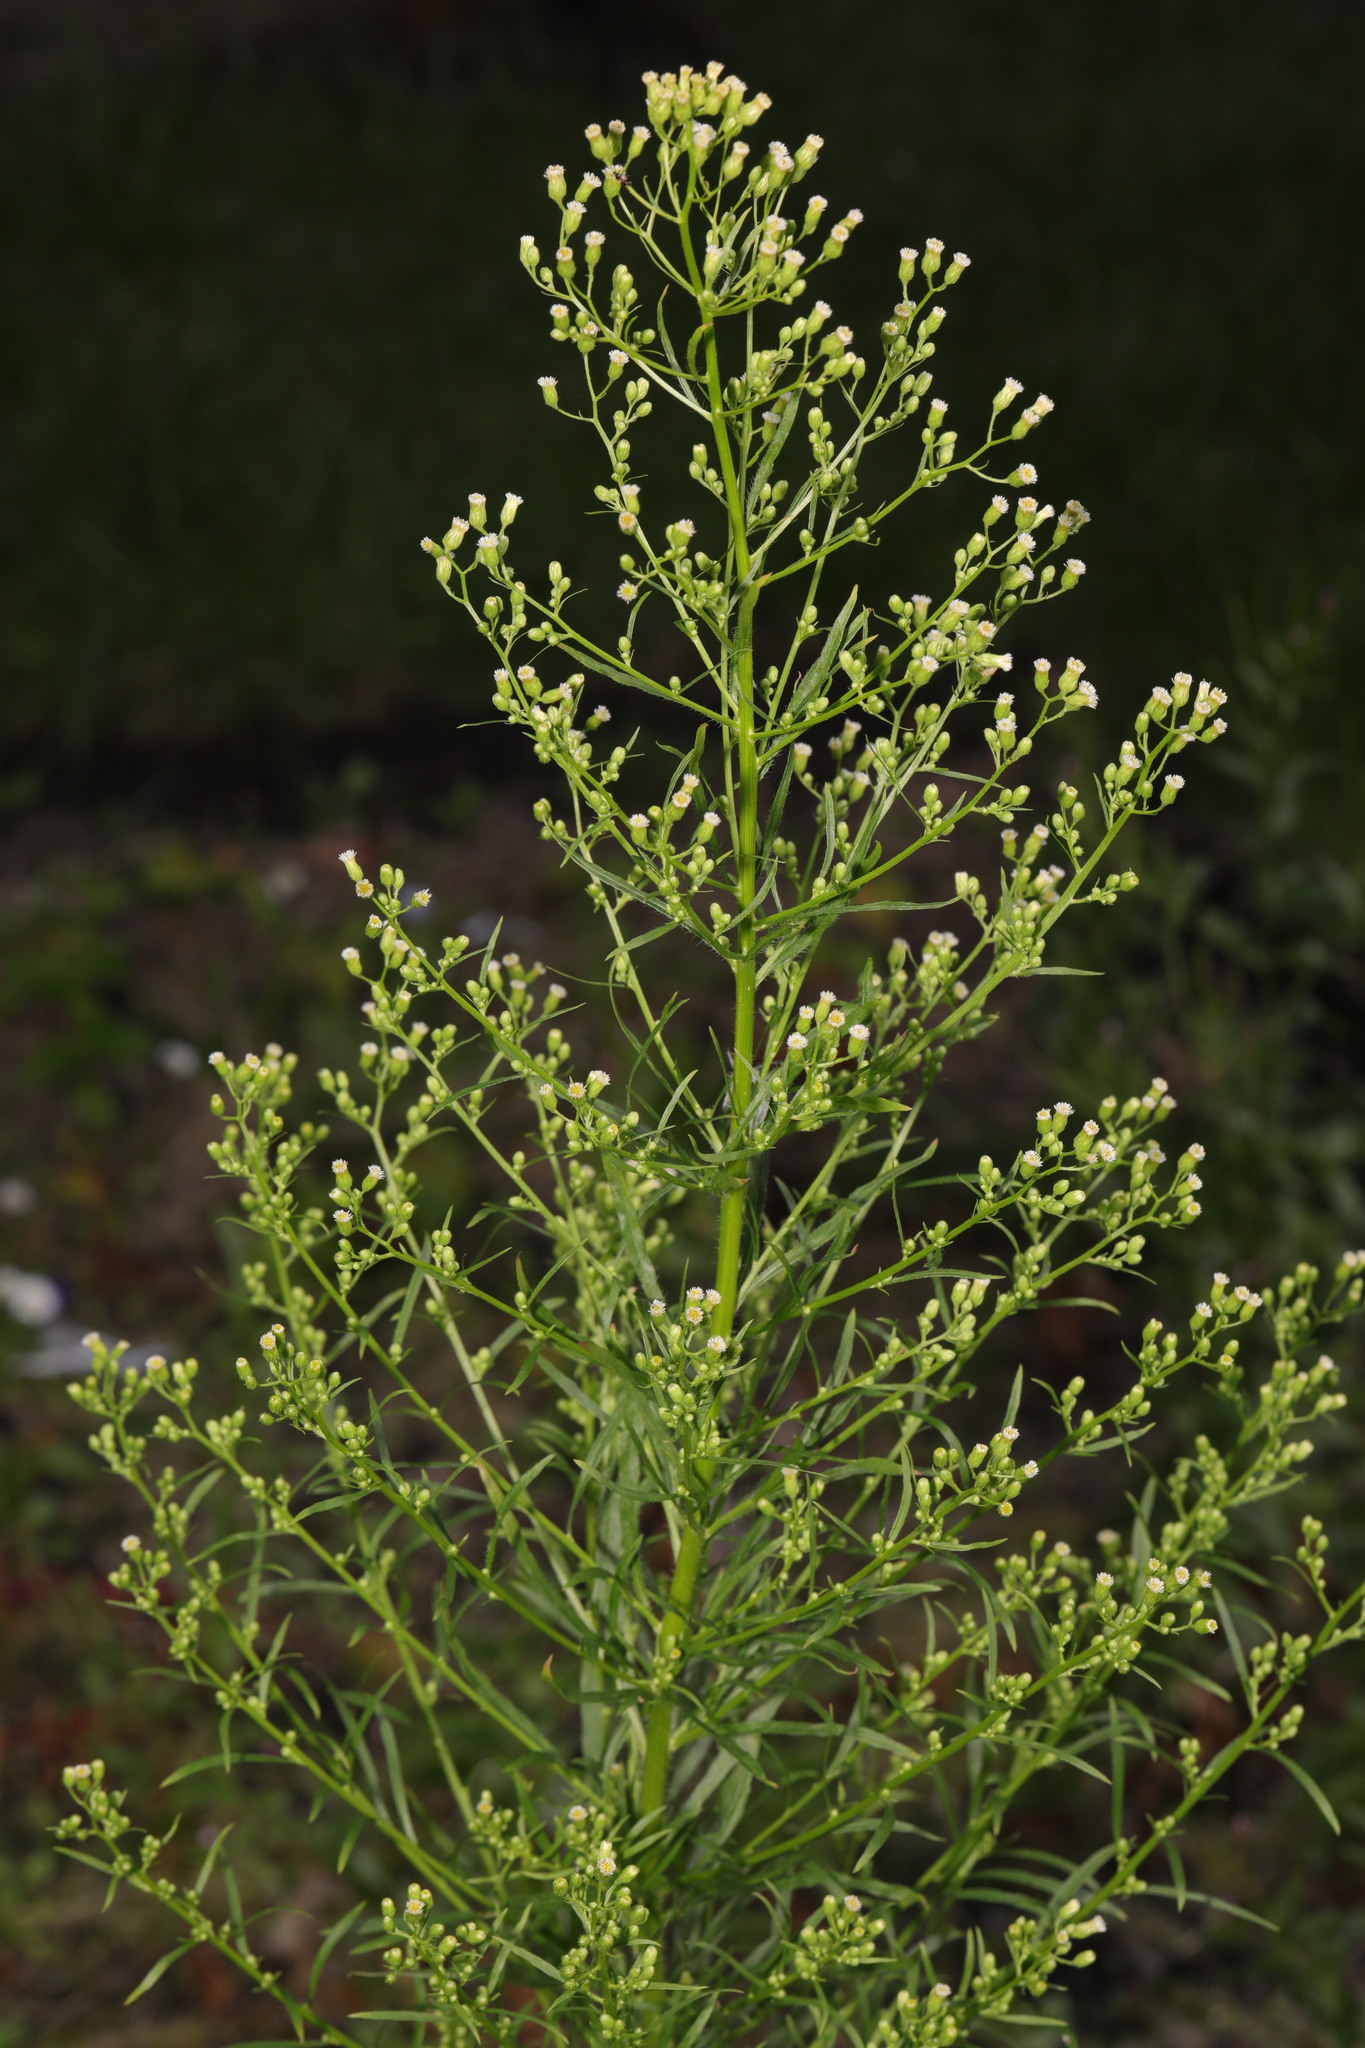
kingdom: Plantae
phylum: Tracheophyta
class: Magnoliopsida
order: Asterales
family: Asteraceae
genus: Erigeron
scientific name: Erigeron canadensis
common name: Canadian fleabane
